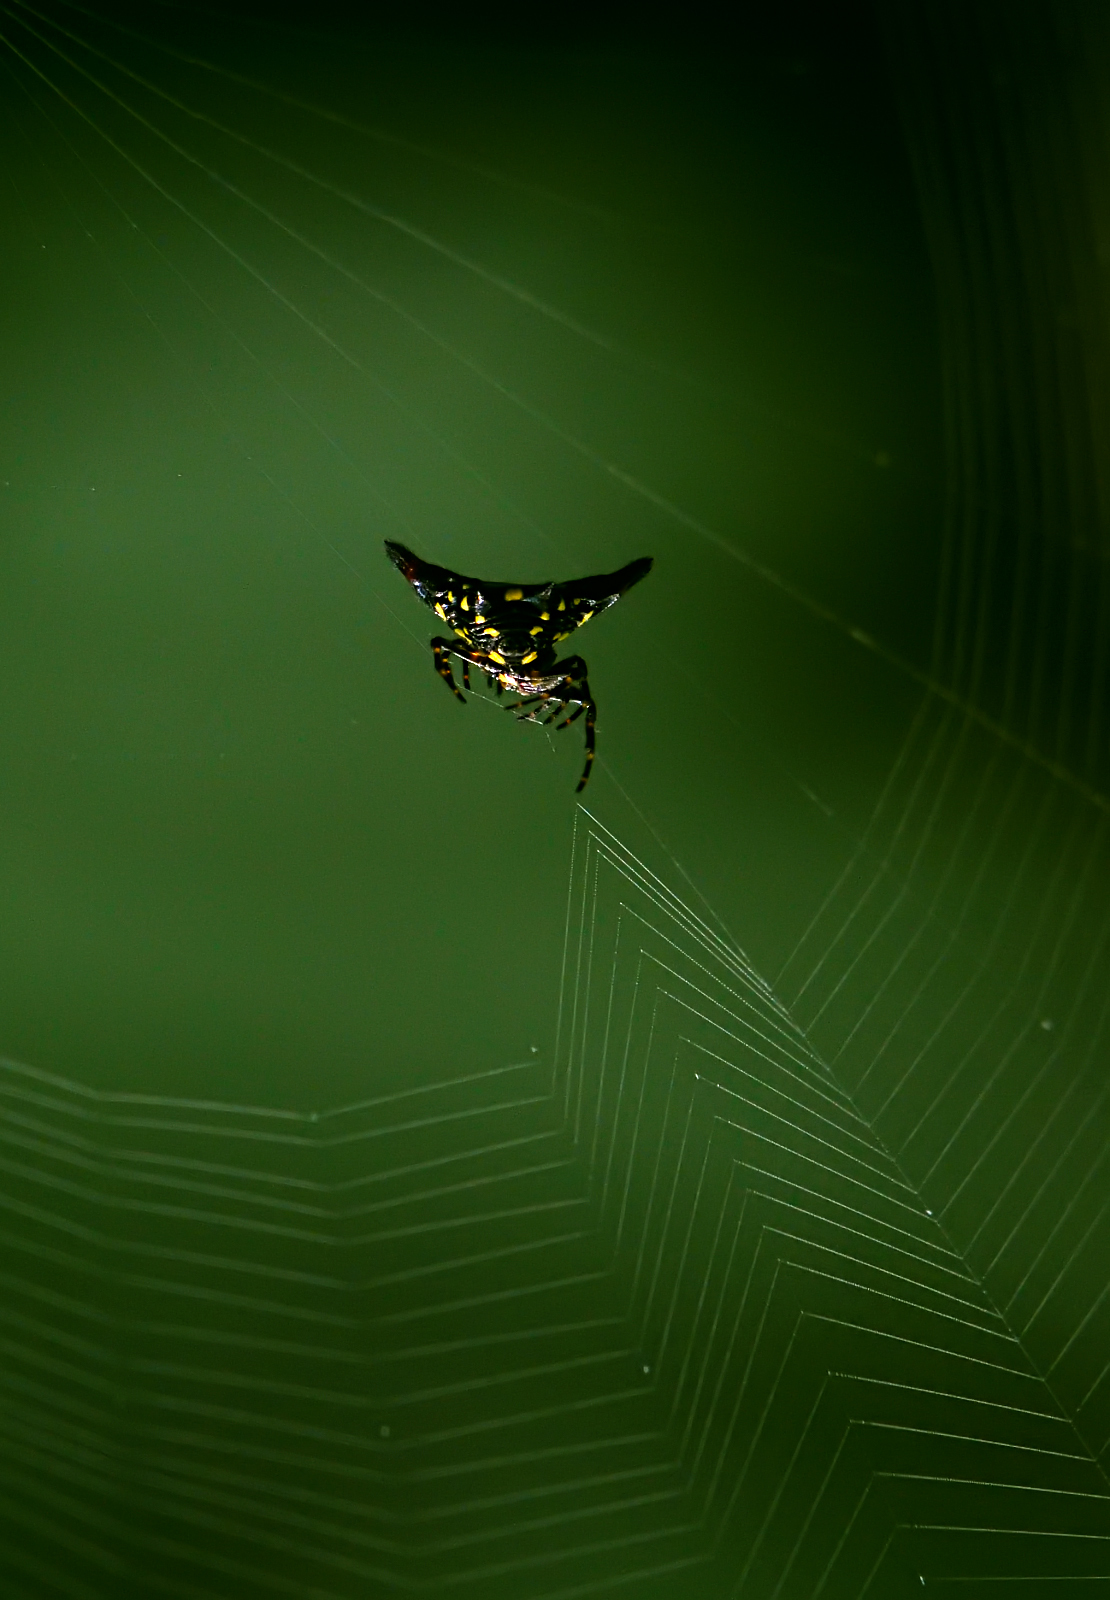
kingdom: Animalia
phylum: Arthropoda
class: Arachnida
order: Araneae
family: Araneidae
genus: Gasteracantha
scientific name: Gasteracantha geminata
